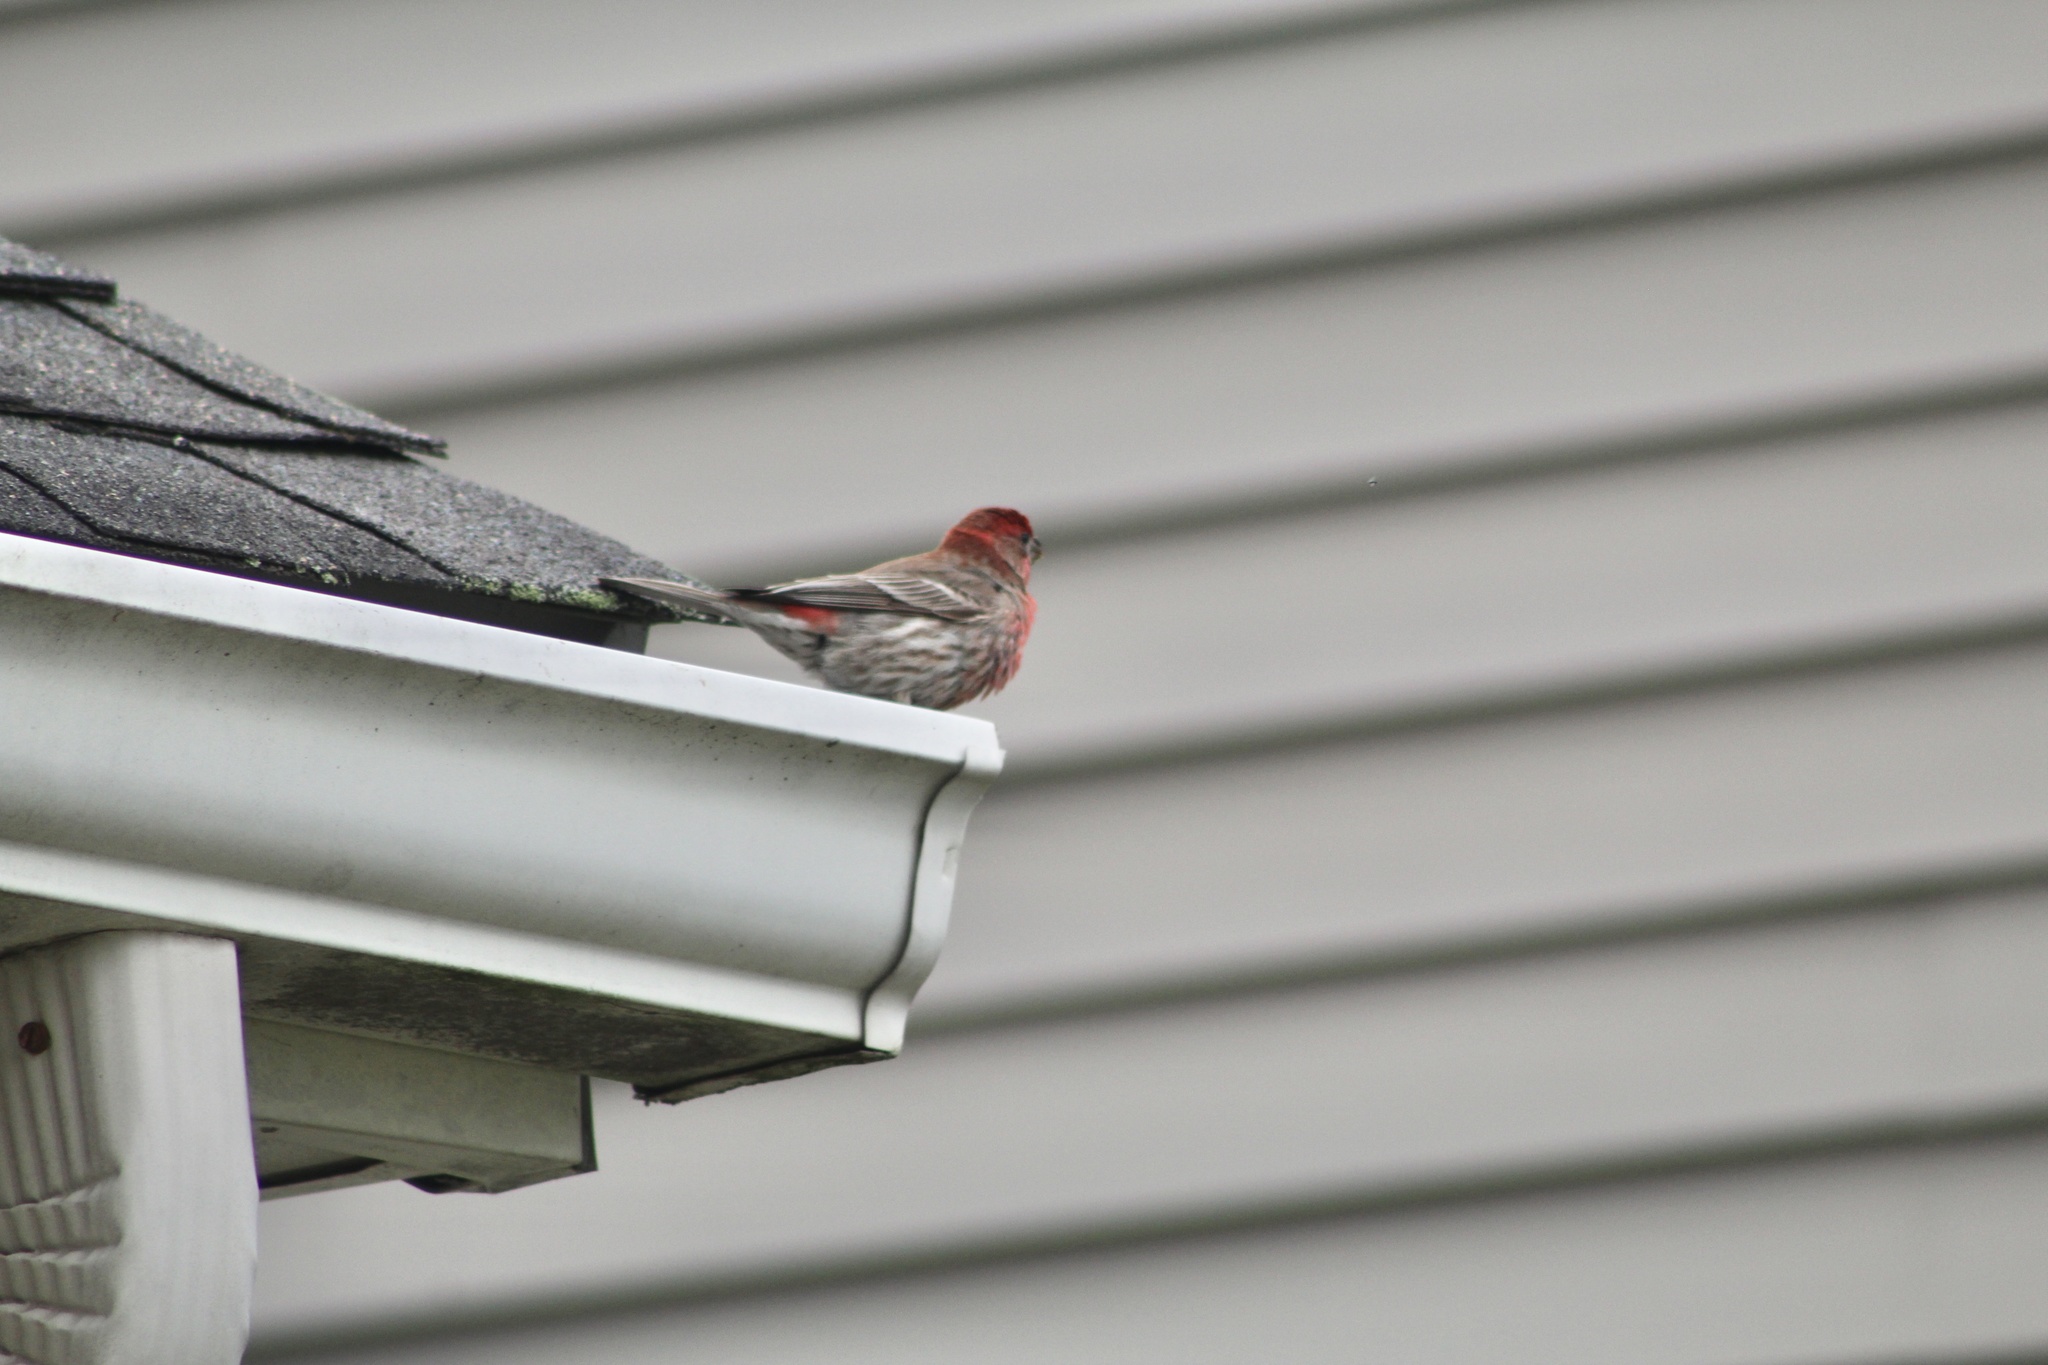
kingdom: Animalia
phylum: Chordata
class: Aves
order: Passeriformes
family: Fringillidae
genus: Haemorhous
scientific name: Haemorhous mexicanus
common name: House finch
